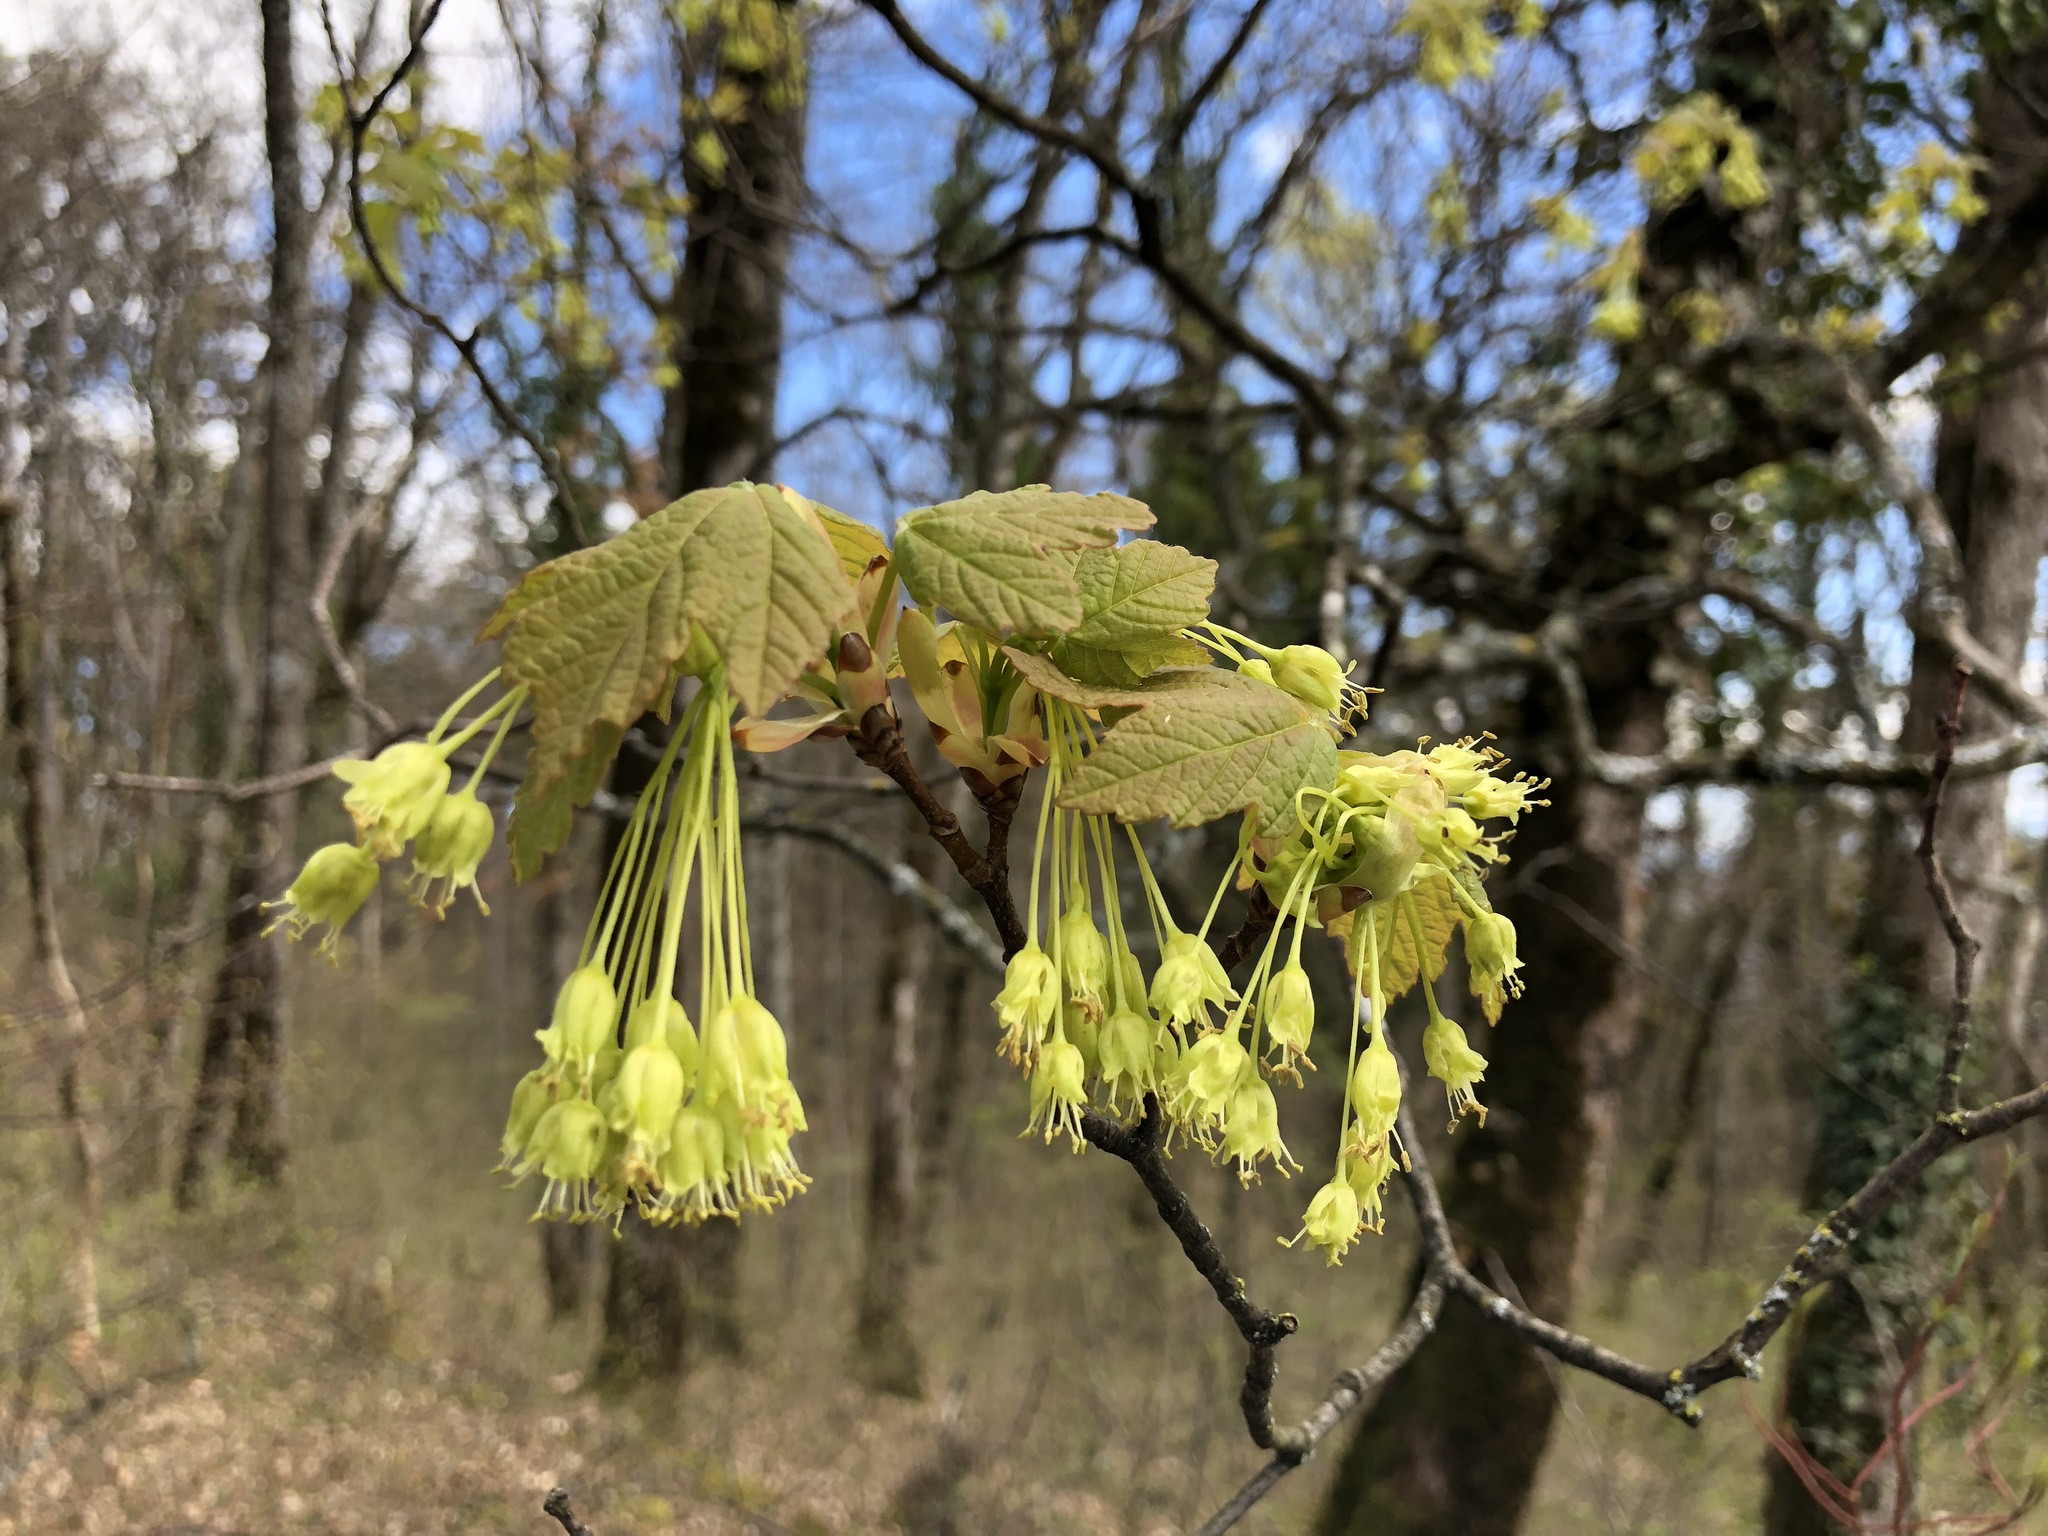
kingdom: Plantae
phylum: Tracheophyta
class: Magnoliopsida
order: Sapindales
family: Sapindaceae
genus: Acer
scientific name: Acer opalus
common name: Italian maple
